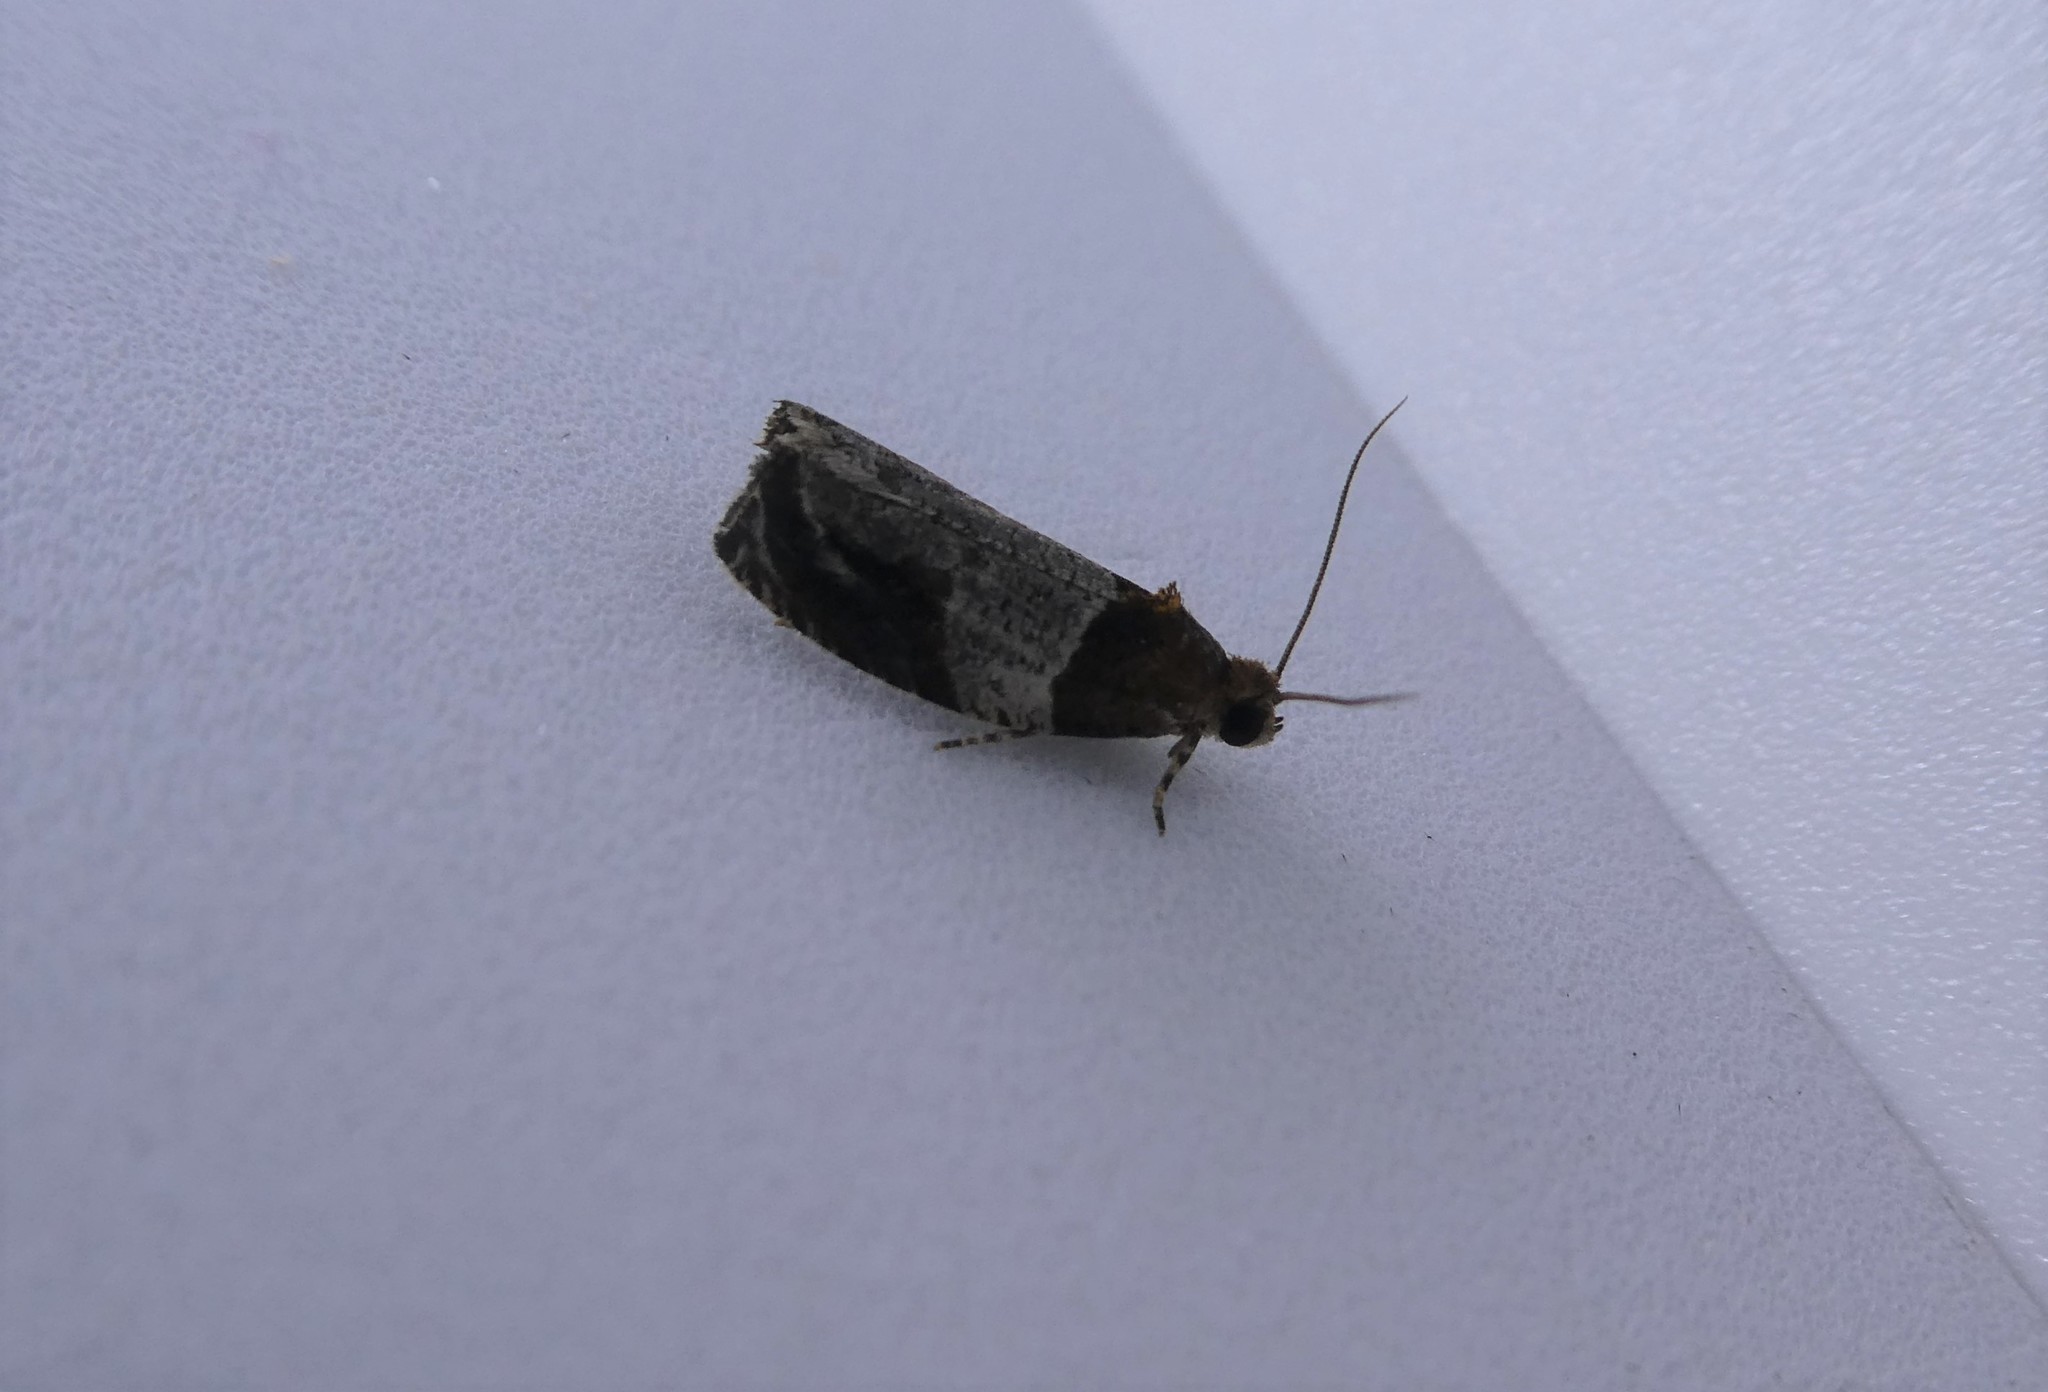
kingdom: Animalia
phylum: Arthropoda
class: Insecta
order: Lepidoptera
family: Tortricidae
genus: Olethreutes
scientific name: Olethreutes ferriferana
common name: Hydrangea leaftier moth
